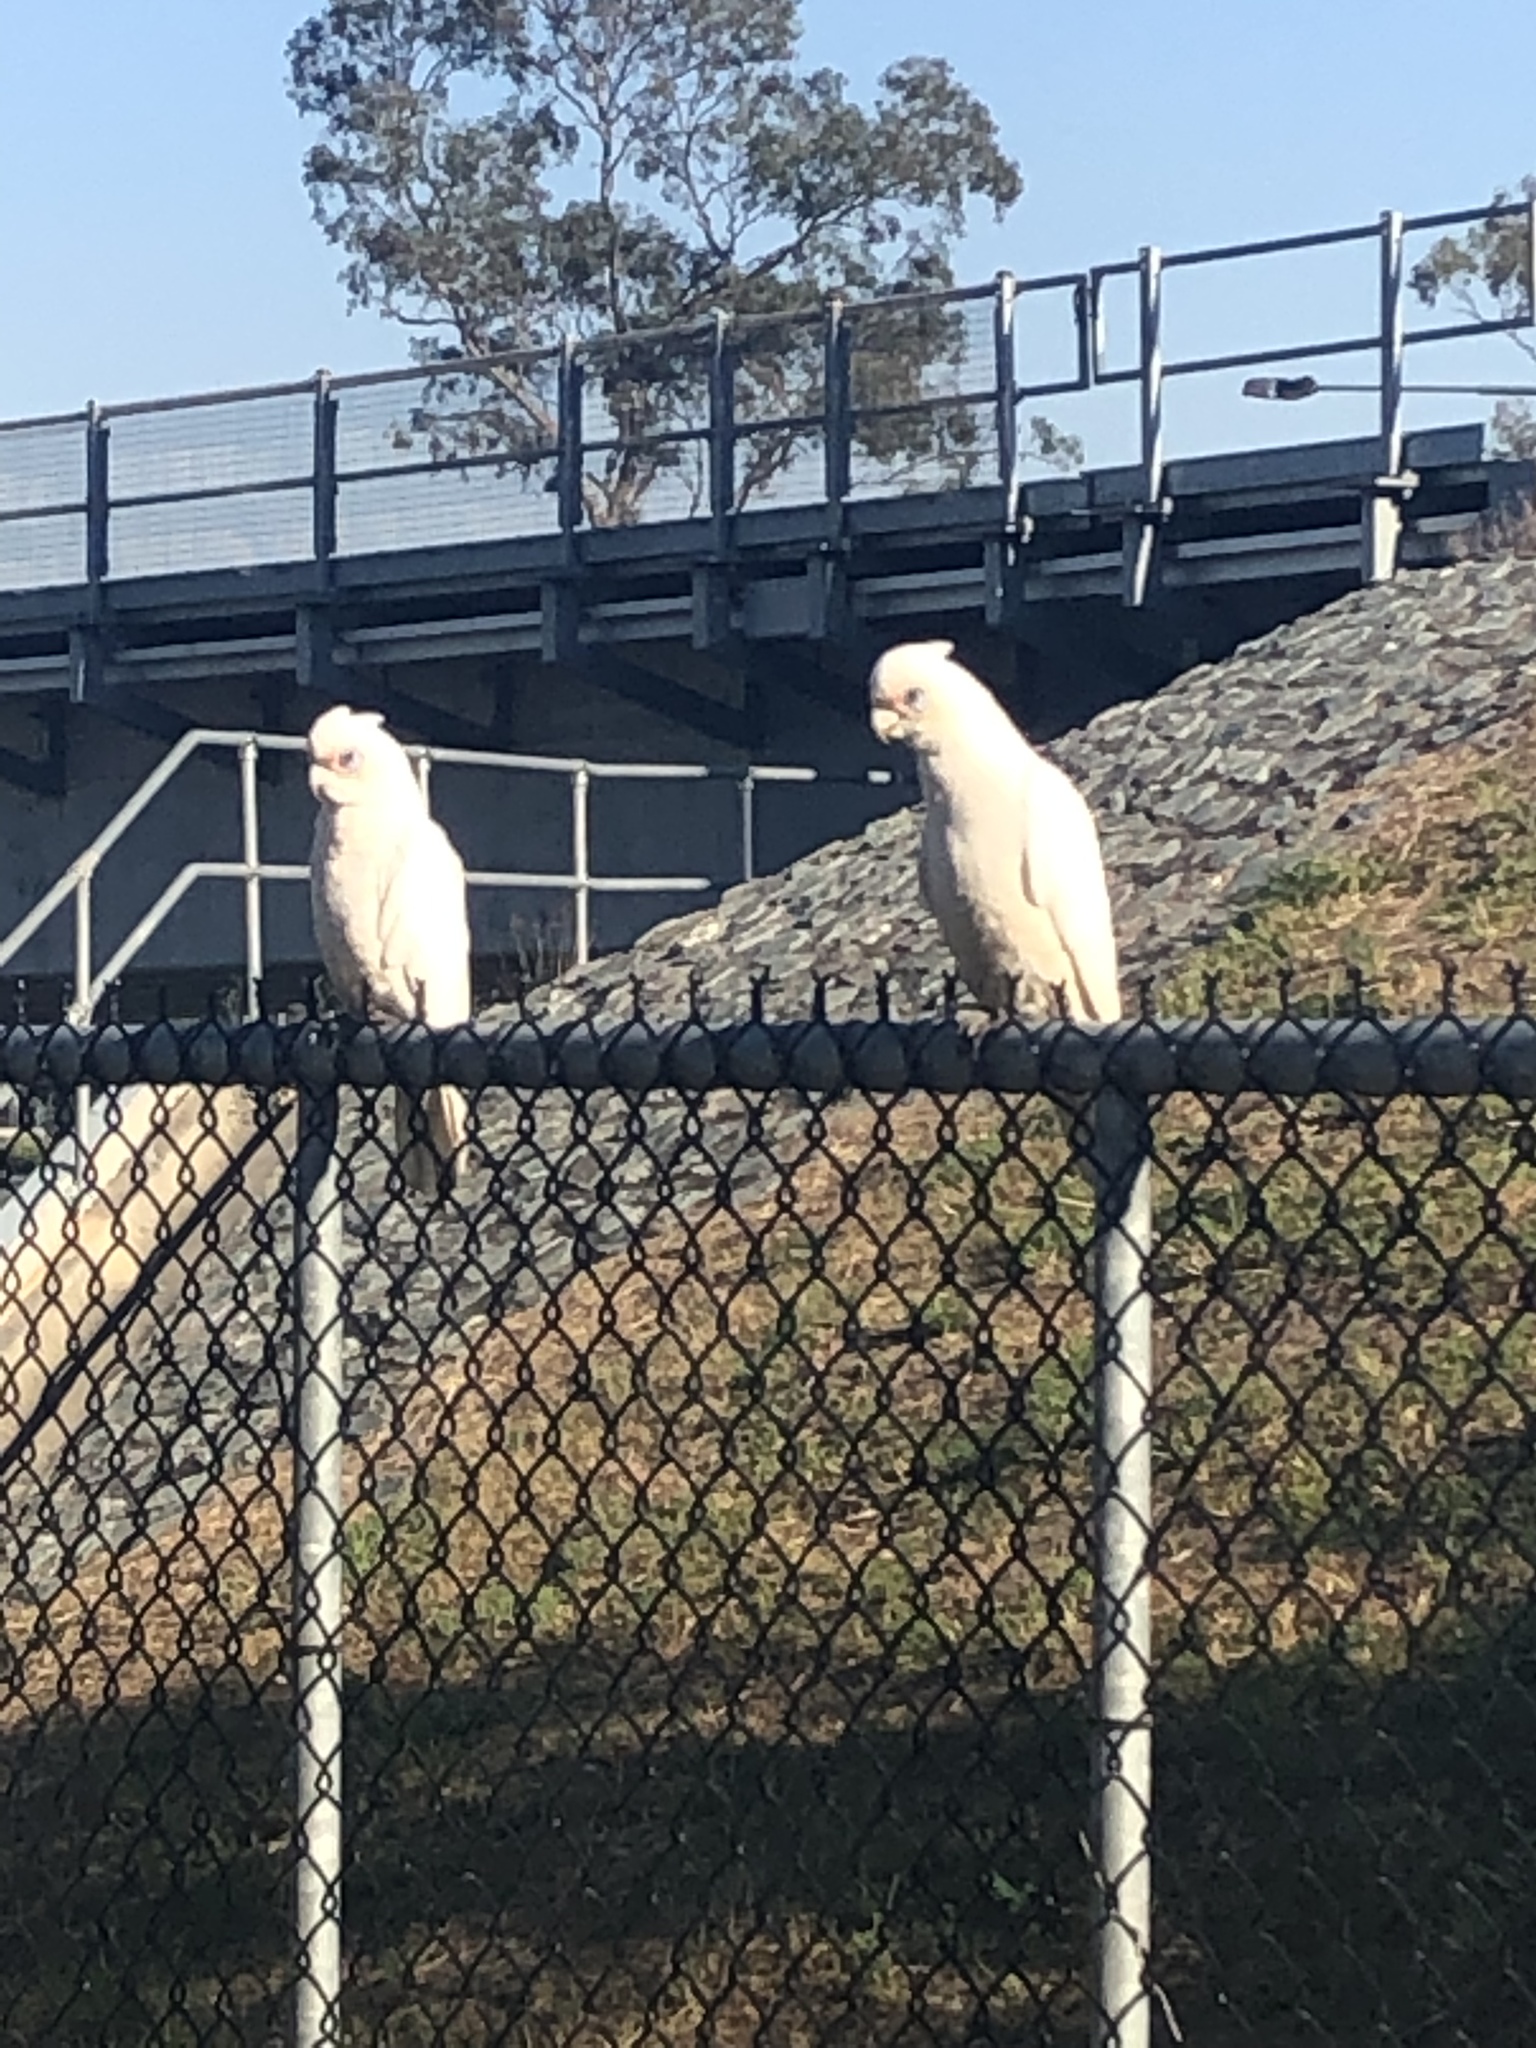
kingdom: Animalia
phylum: Chordata
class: Aves
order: Psittaciformes
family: Psittacidae
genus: Cacatua
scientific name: Cacatua sanguinea
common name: Little corella
